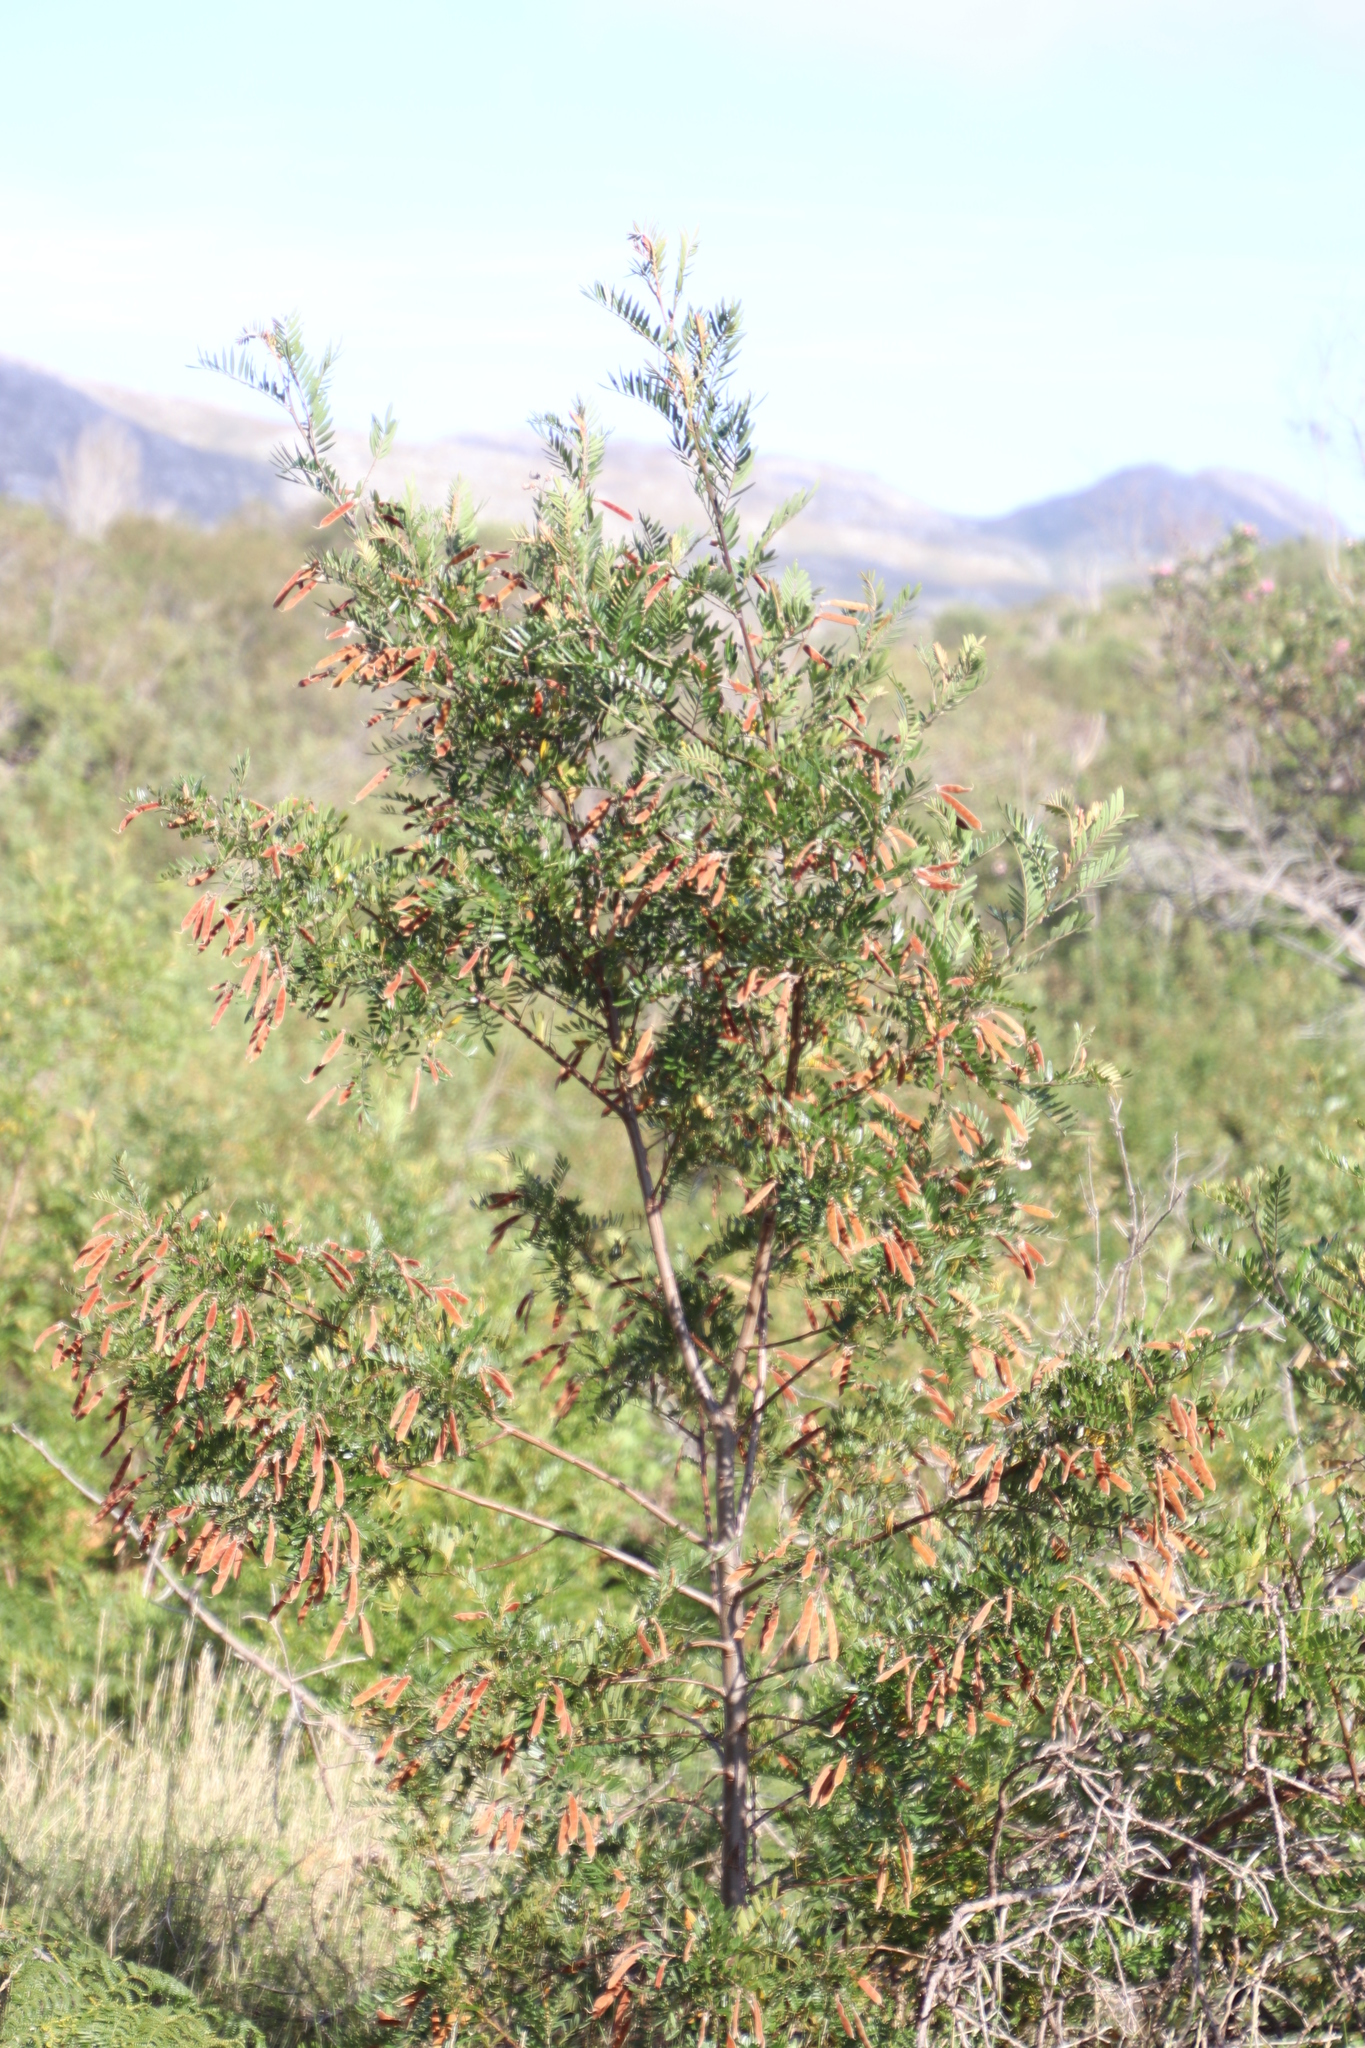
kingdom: Plantae
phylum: Tracheophyta
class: Magnoliopsida
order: Fabales
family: Fabaceae
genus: Virgilia
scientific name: Virgilia oroboides
